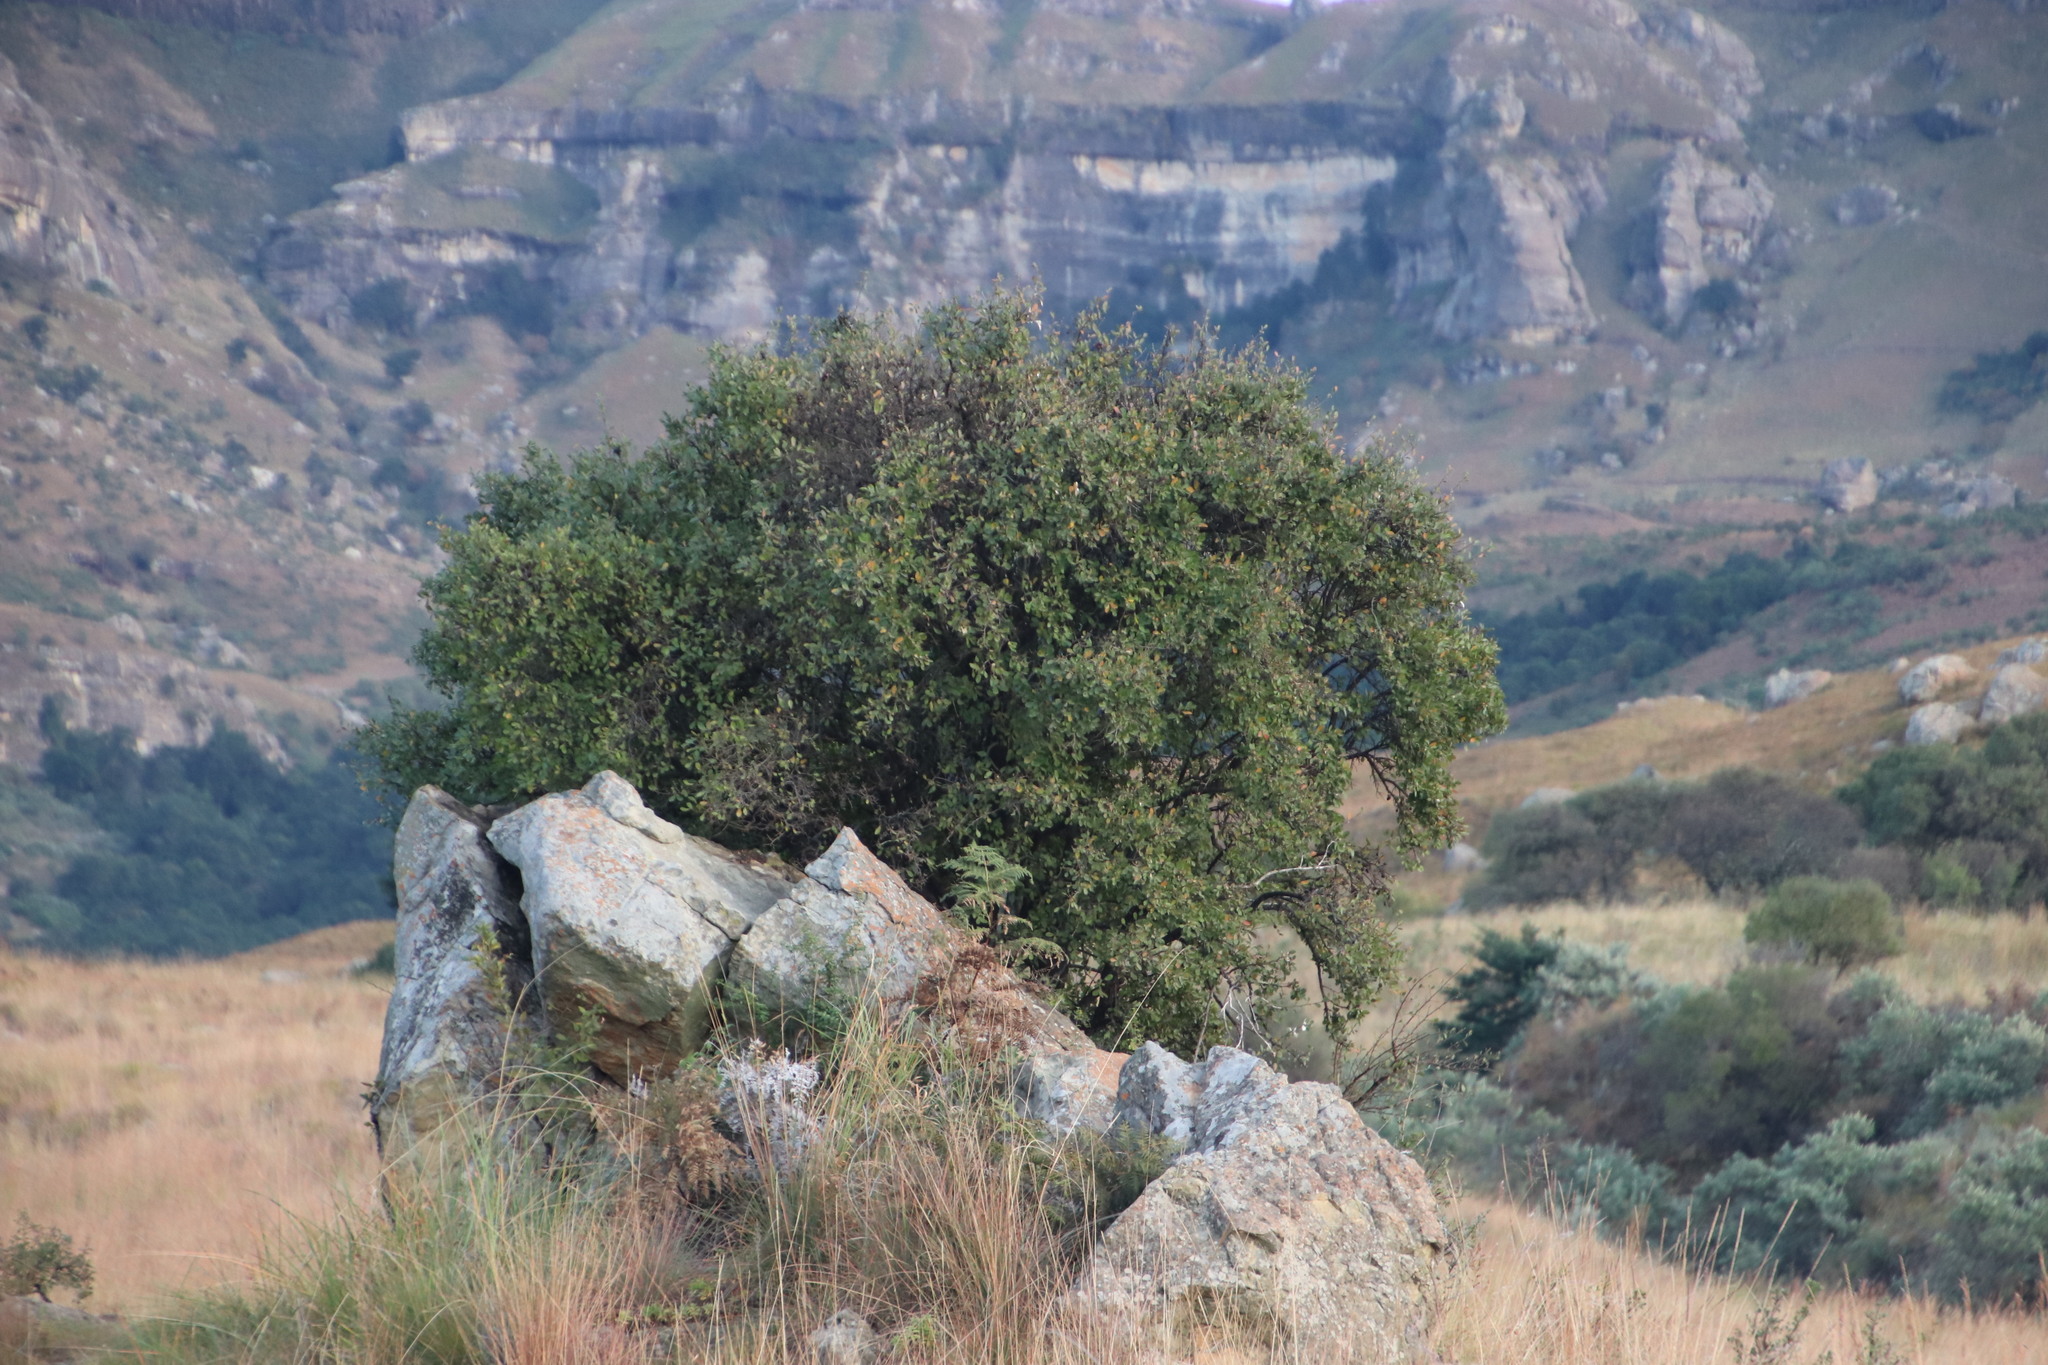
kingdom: Plantae
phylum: Tracheophyta
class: Magnoliopsida
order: Ericales
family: Ebenaceae
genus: Diospyros
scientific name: Diospyros lycioides
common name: Red star apple
